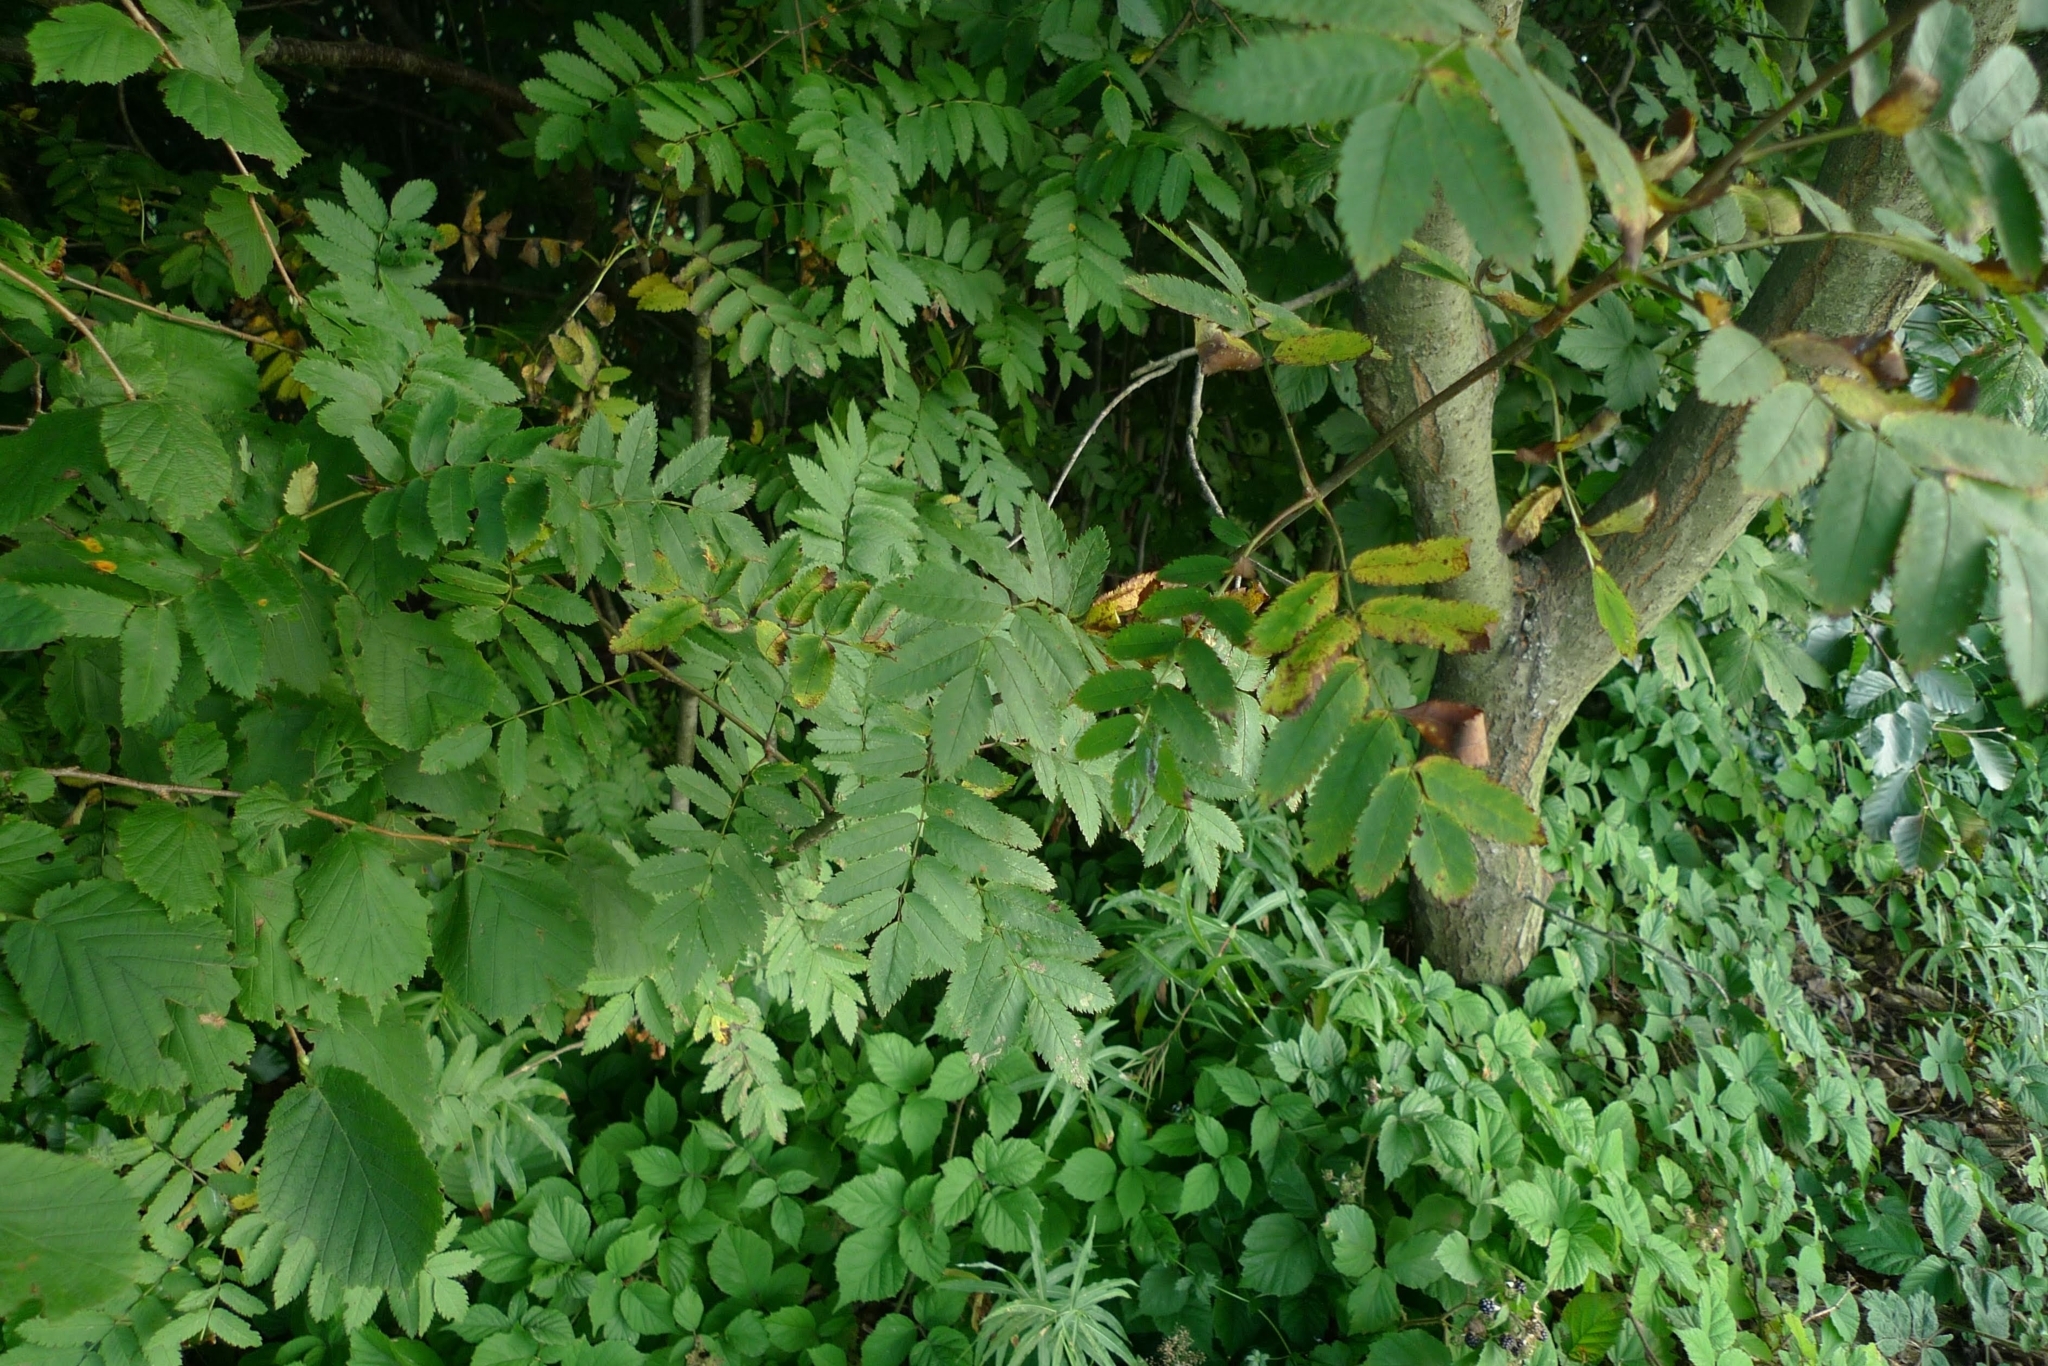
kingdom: Plantae
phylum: Tracheophyta
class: Magnoliopsida
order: Rosales
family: Rosaceae
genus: Sorbus
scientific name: Sorbus aucuparia
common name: Rowan
